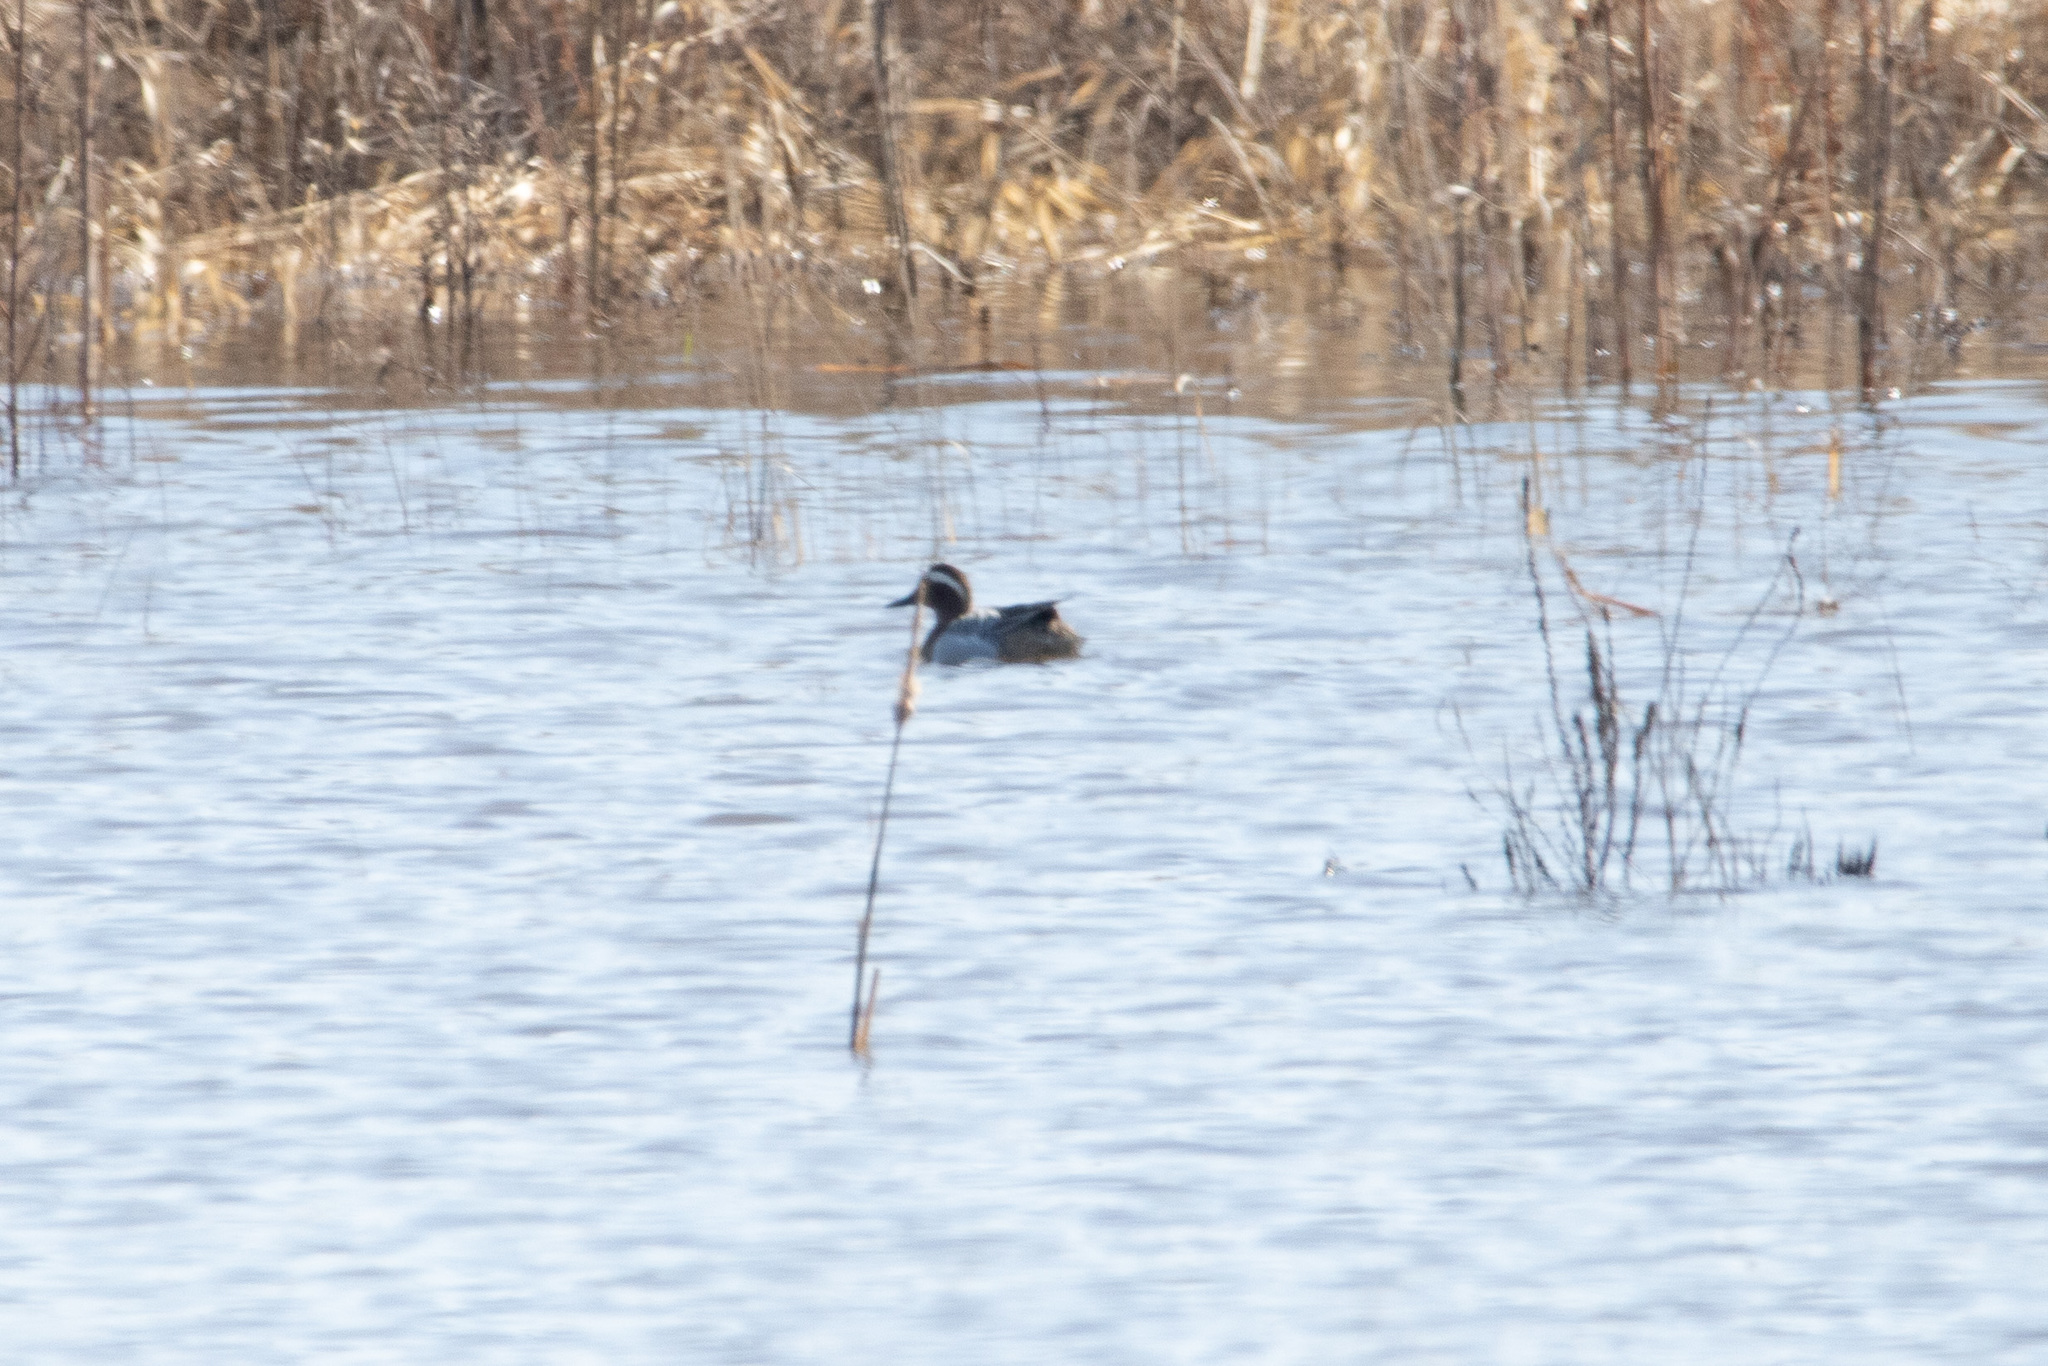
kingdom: Animalia
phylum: Chordata
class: Aves
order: Anseriformes
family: Anatidae
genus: Spatula
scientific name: Spatula querquedula
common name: Garganey
